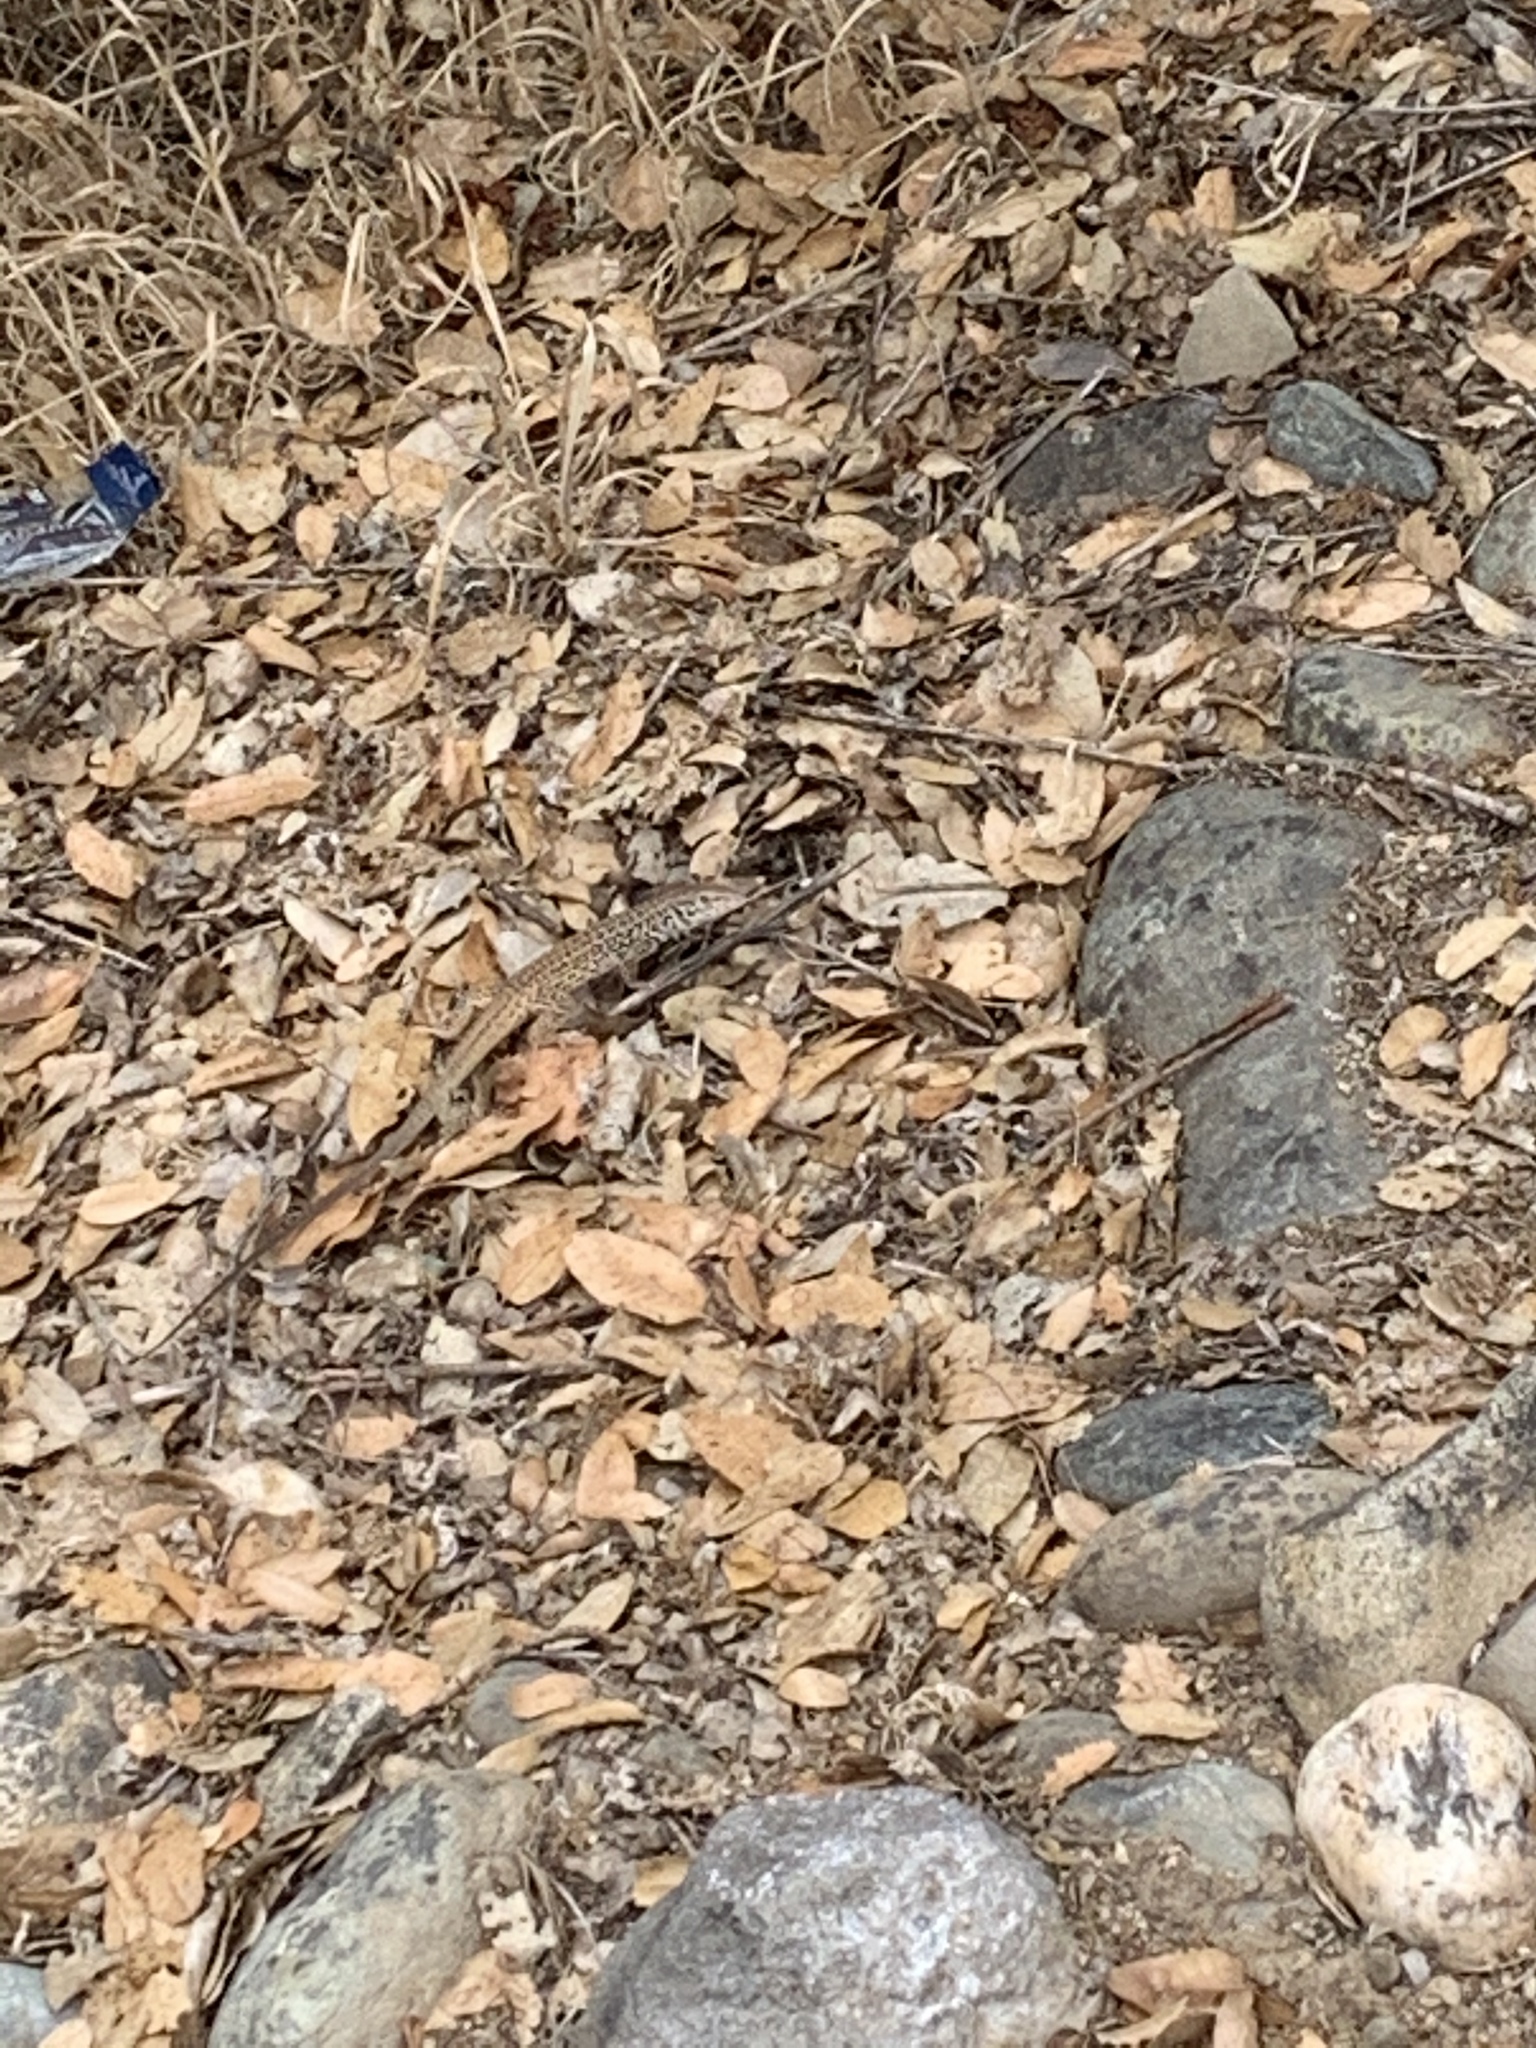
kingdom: Animalia
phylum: Chordata
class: Squamata
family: Teiidae
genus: Aspidoscelis
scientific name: Aspidoscelis tigris
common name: Tiger whiptail
